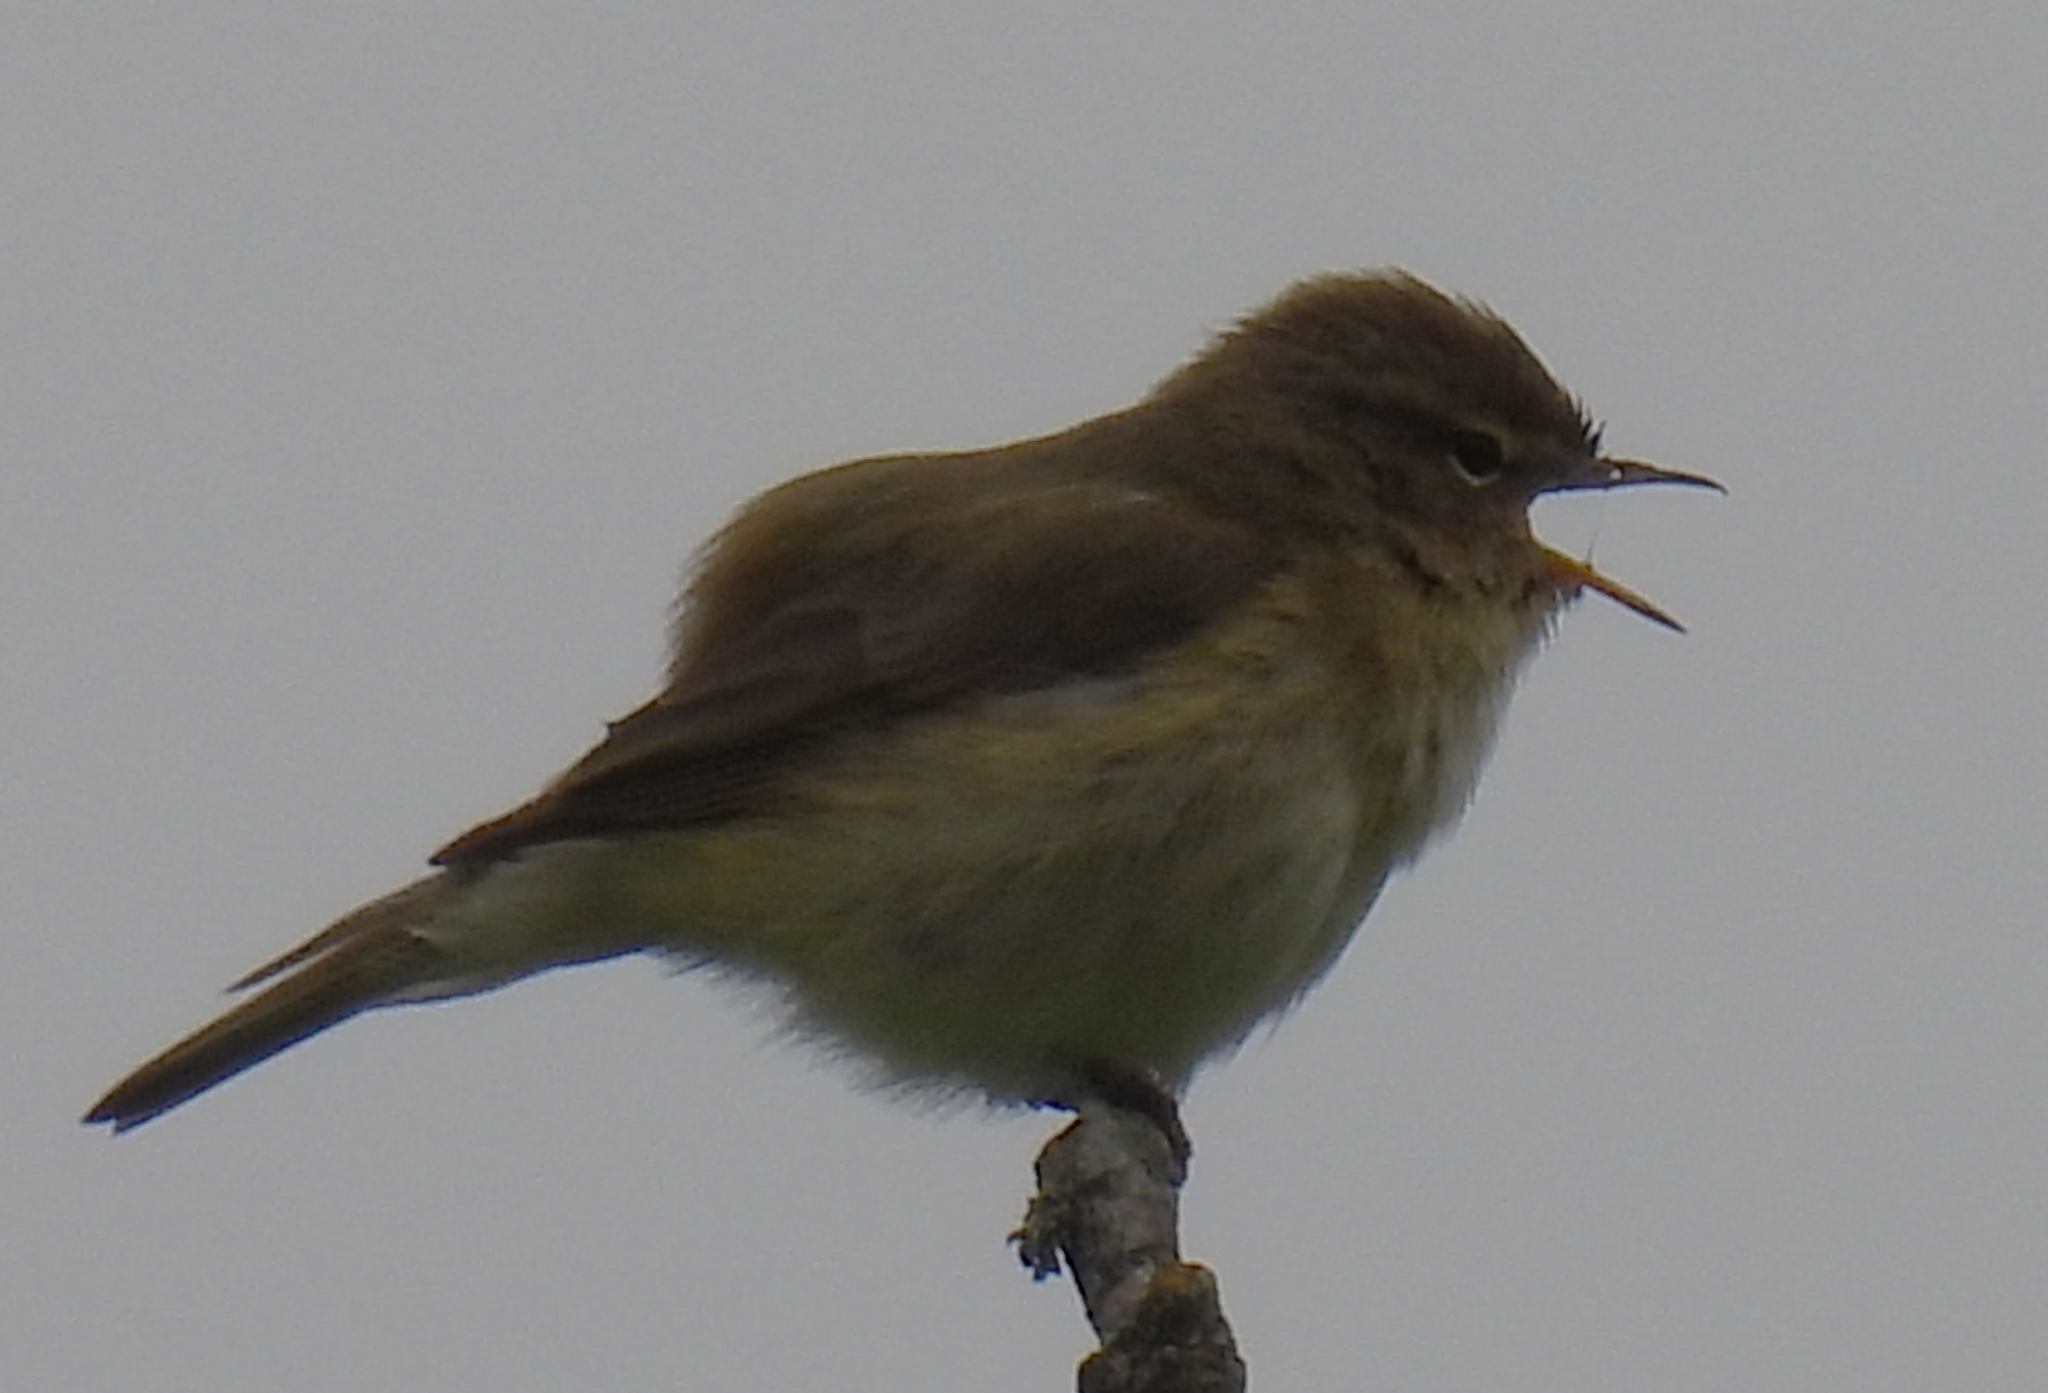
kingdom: Animalia
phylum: Chordata
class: Aves
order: Passeriformes
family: Phylloscopidae
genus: Phylloscopus
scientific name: Phylloscopus collybita
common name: Common chiffchaff
